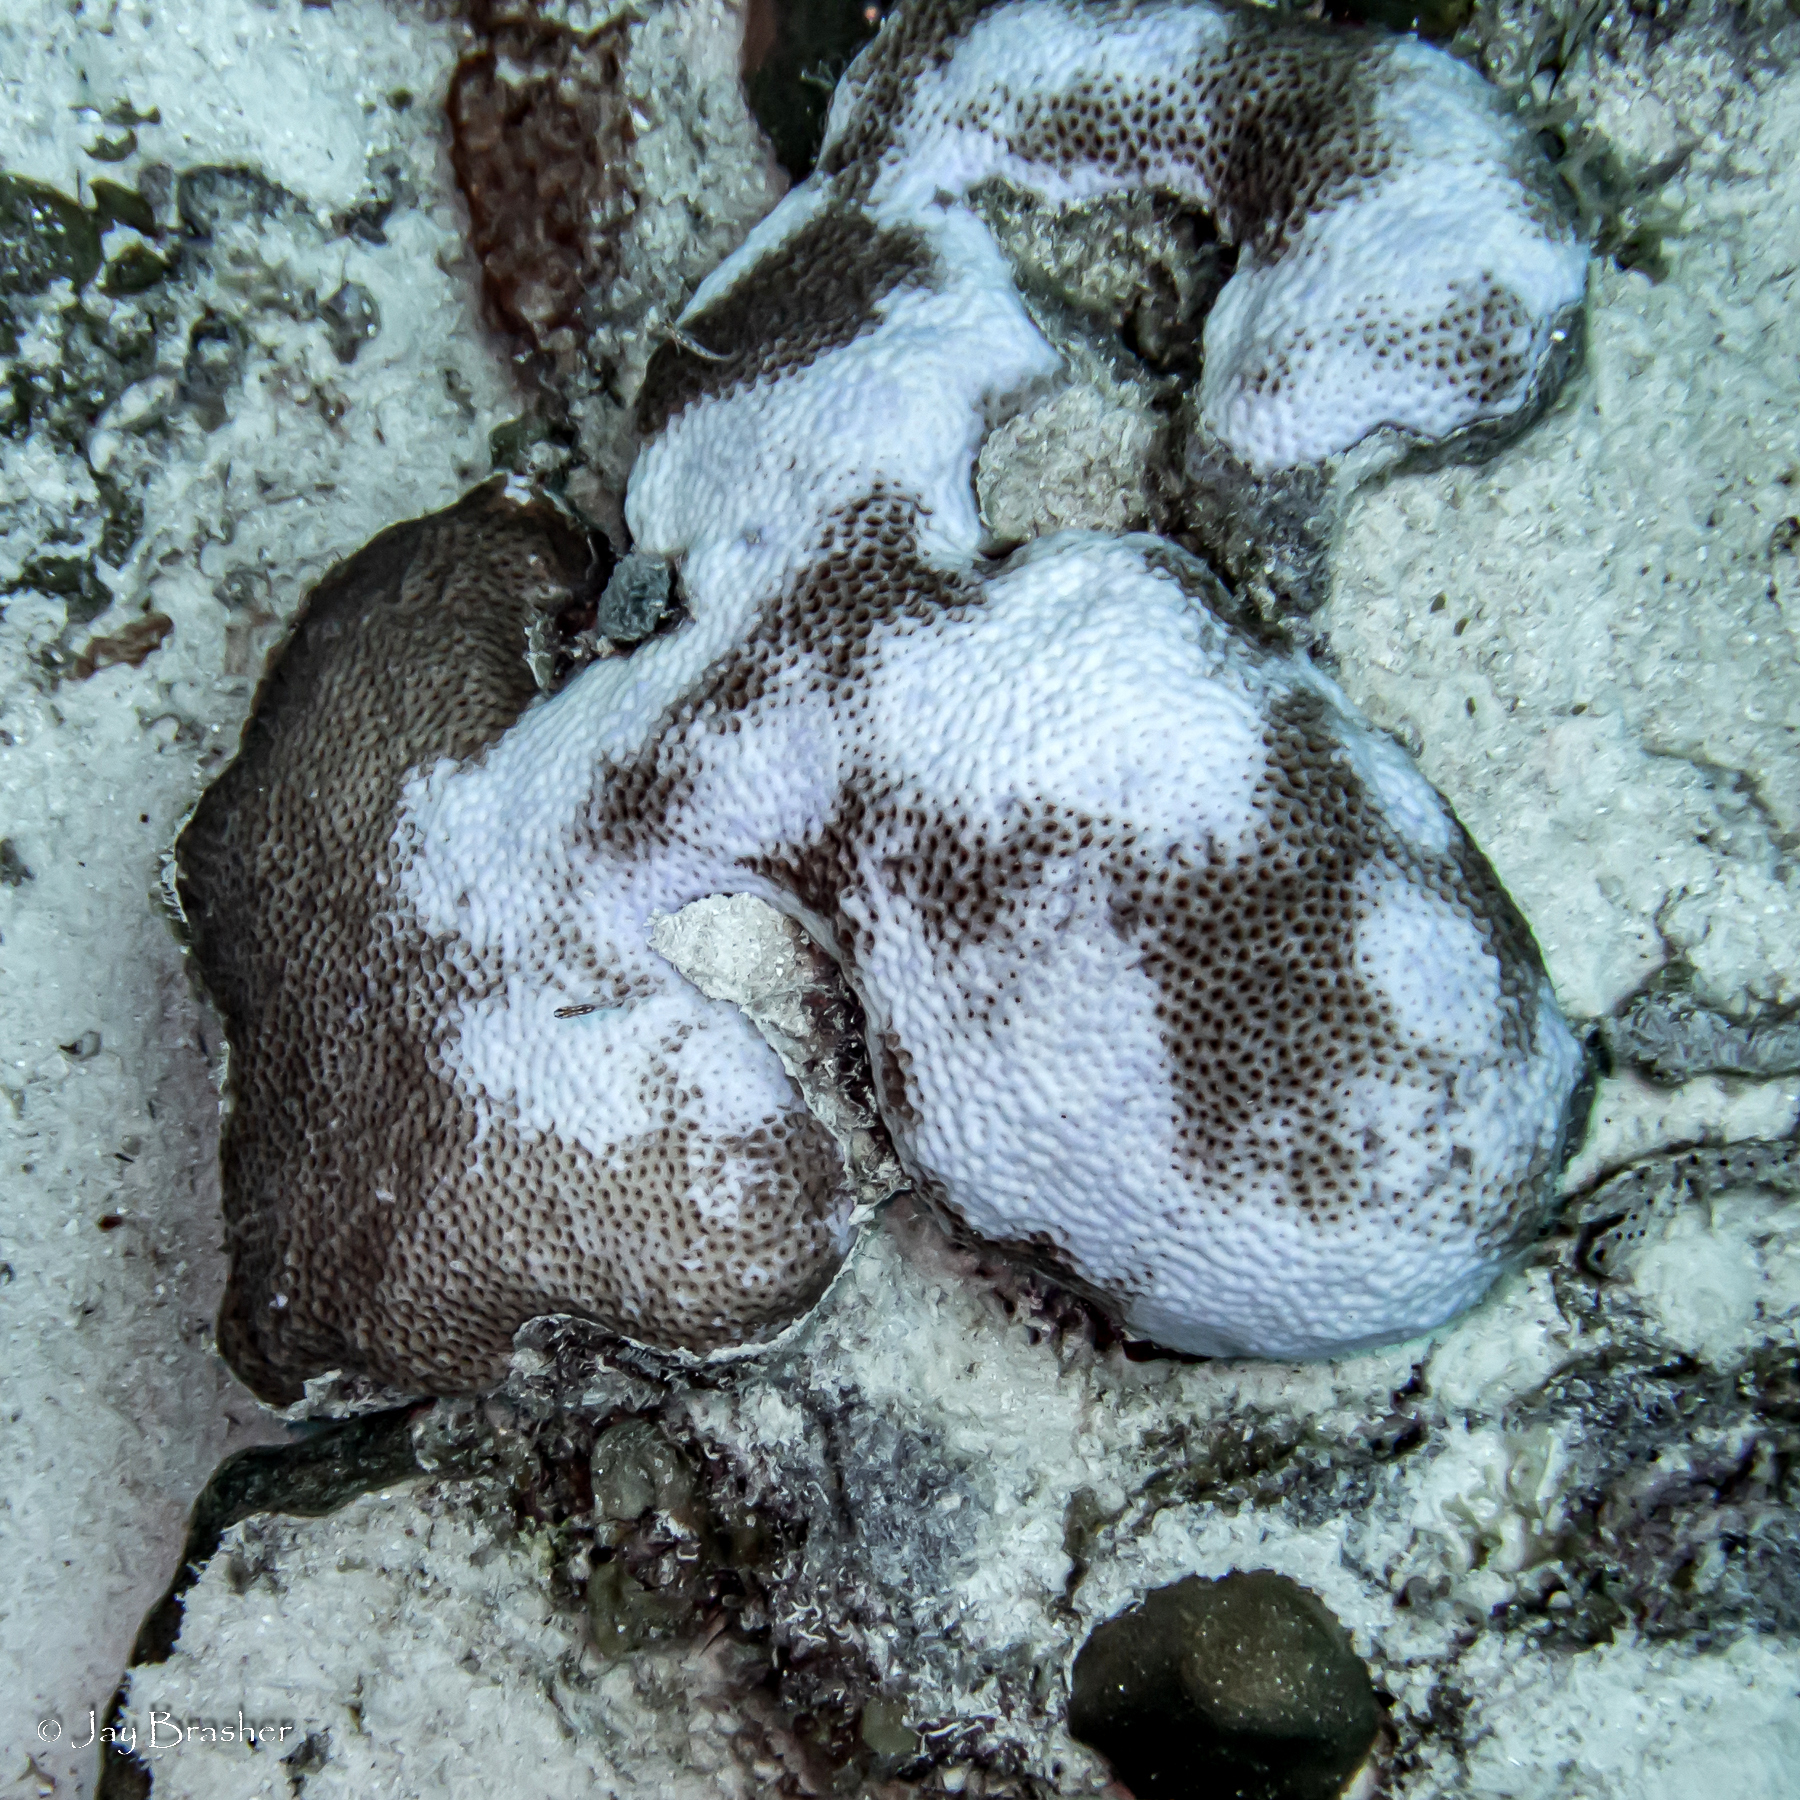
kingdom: Animalia
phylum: Cnidaria
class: Anthozoa
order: Scleractinia
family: Rhizangiidae
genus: Siderastrea
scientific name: Siderastrea siderea
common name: Massive starlet coral
